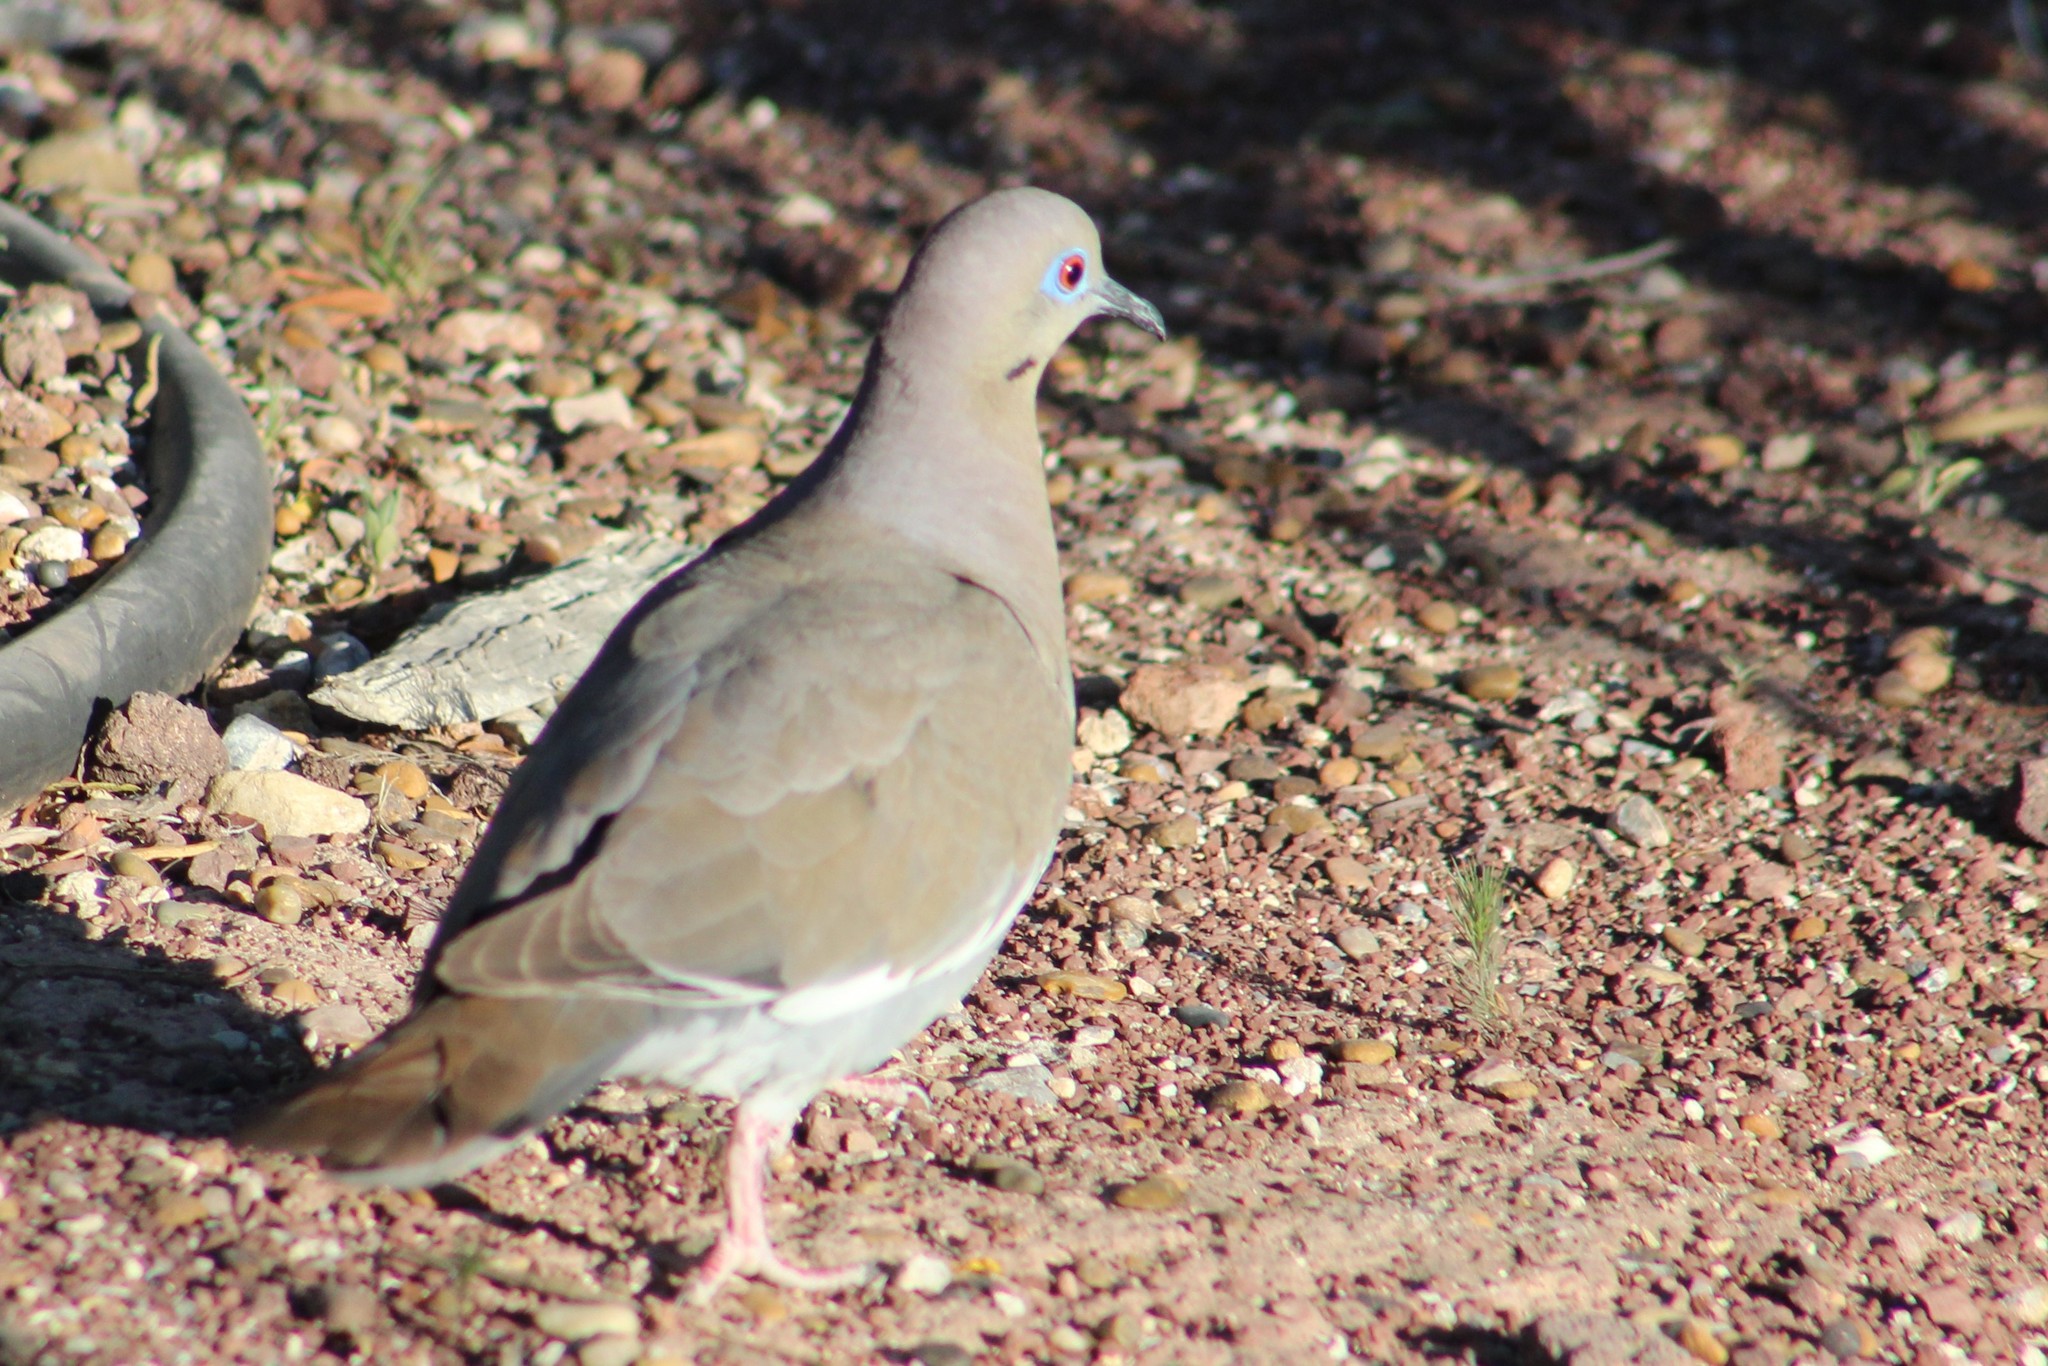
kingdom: Animalia
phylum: Chordata
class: Aves
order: Columbiformes
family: Columbidae
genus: Zenaida
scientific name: Zenaida asiatica
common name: White-winged dove
